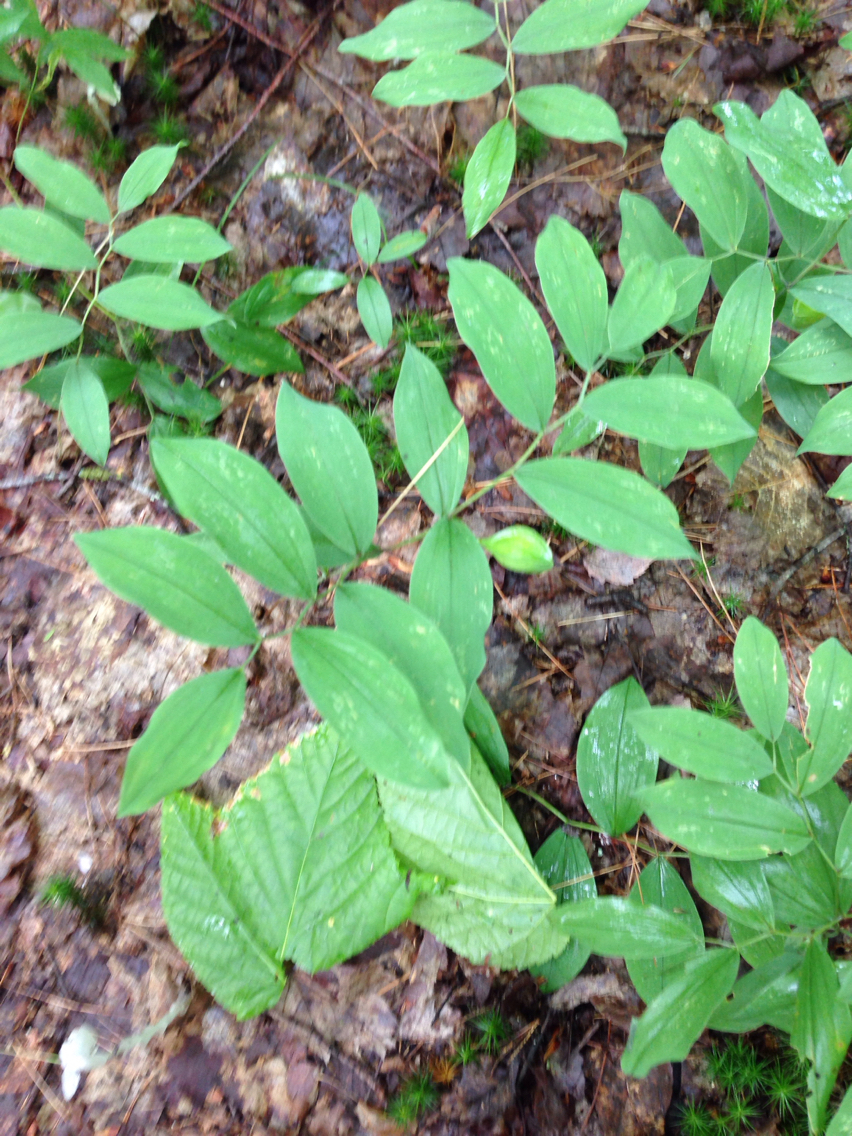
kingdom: Plantae
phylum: Tracheophyta
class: Liliopsida
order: Liliales
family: Colchicaceae
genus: Uvularia
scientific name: Uvularia sessilifolia
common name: Straw-lily
